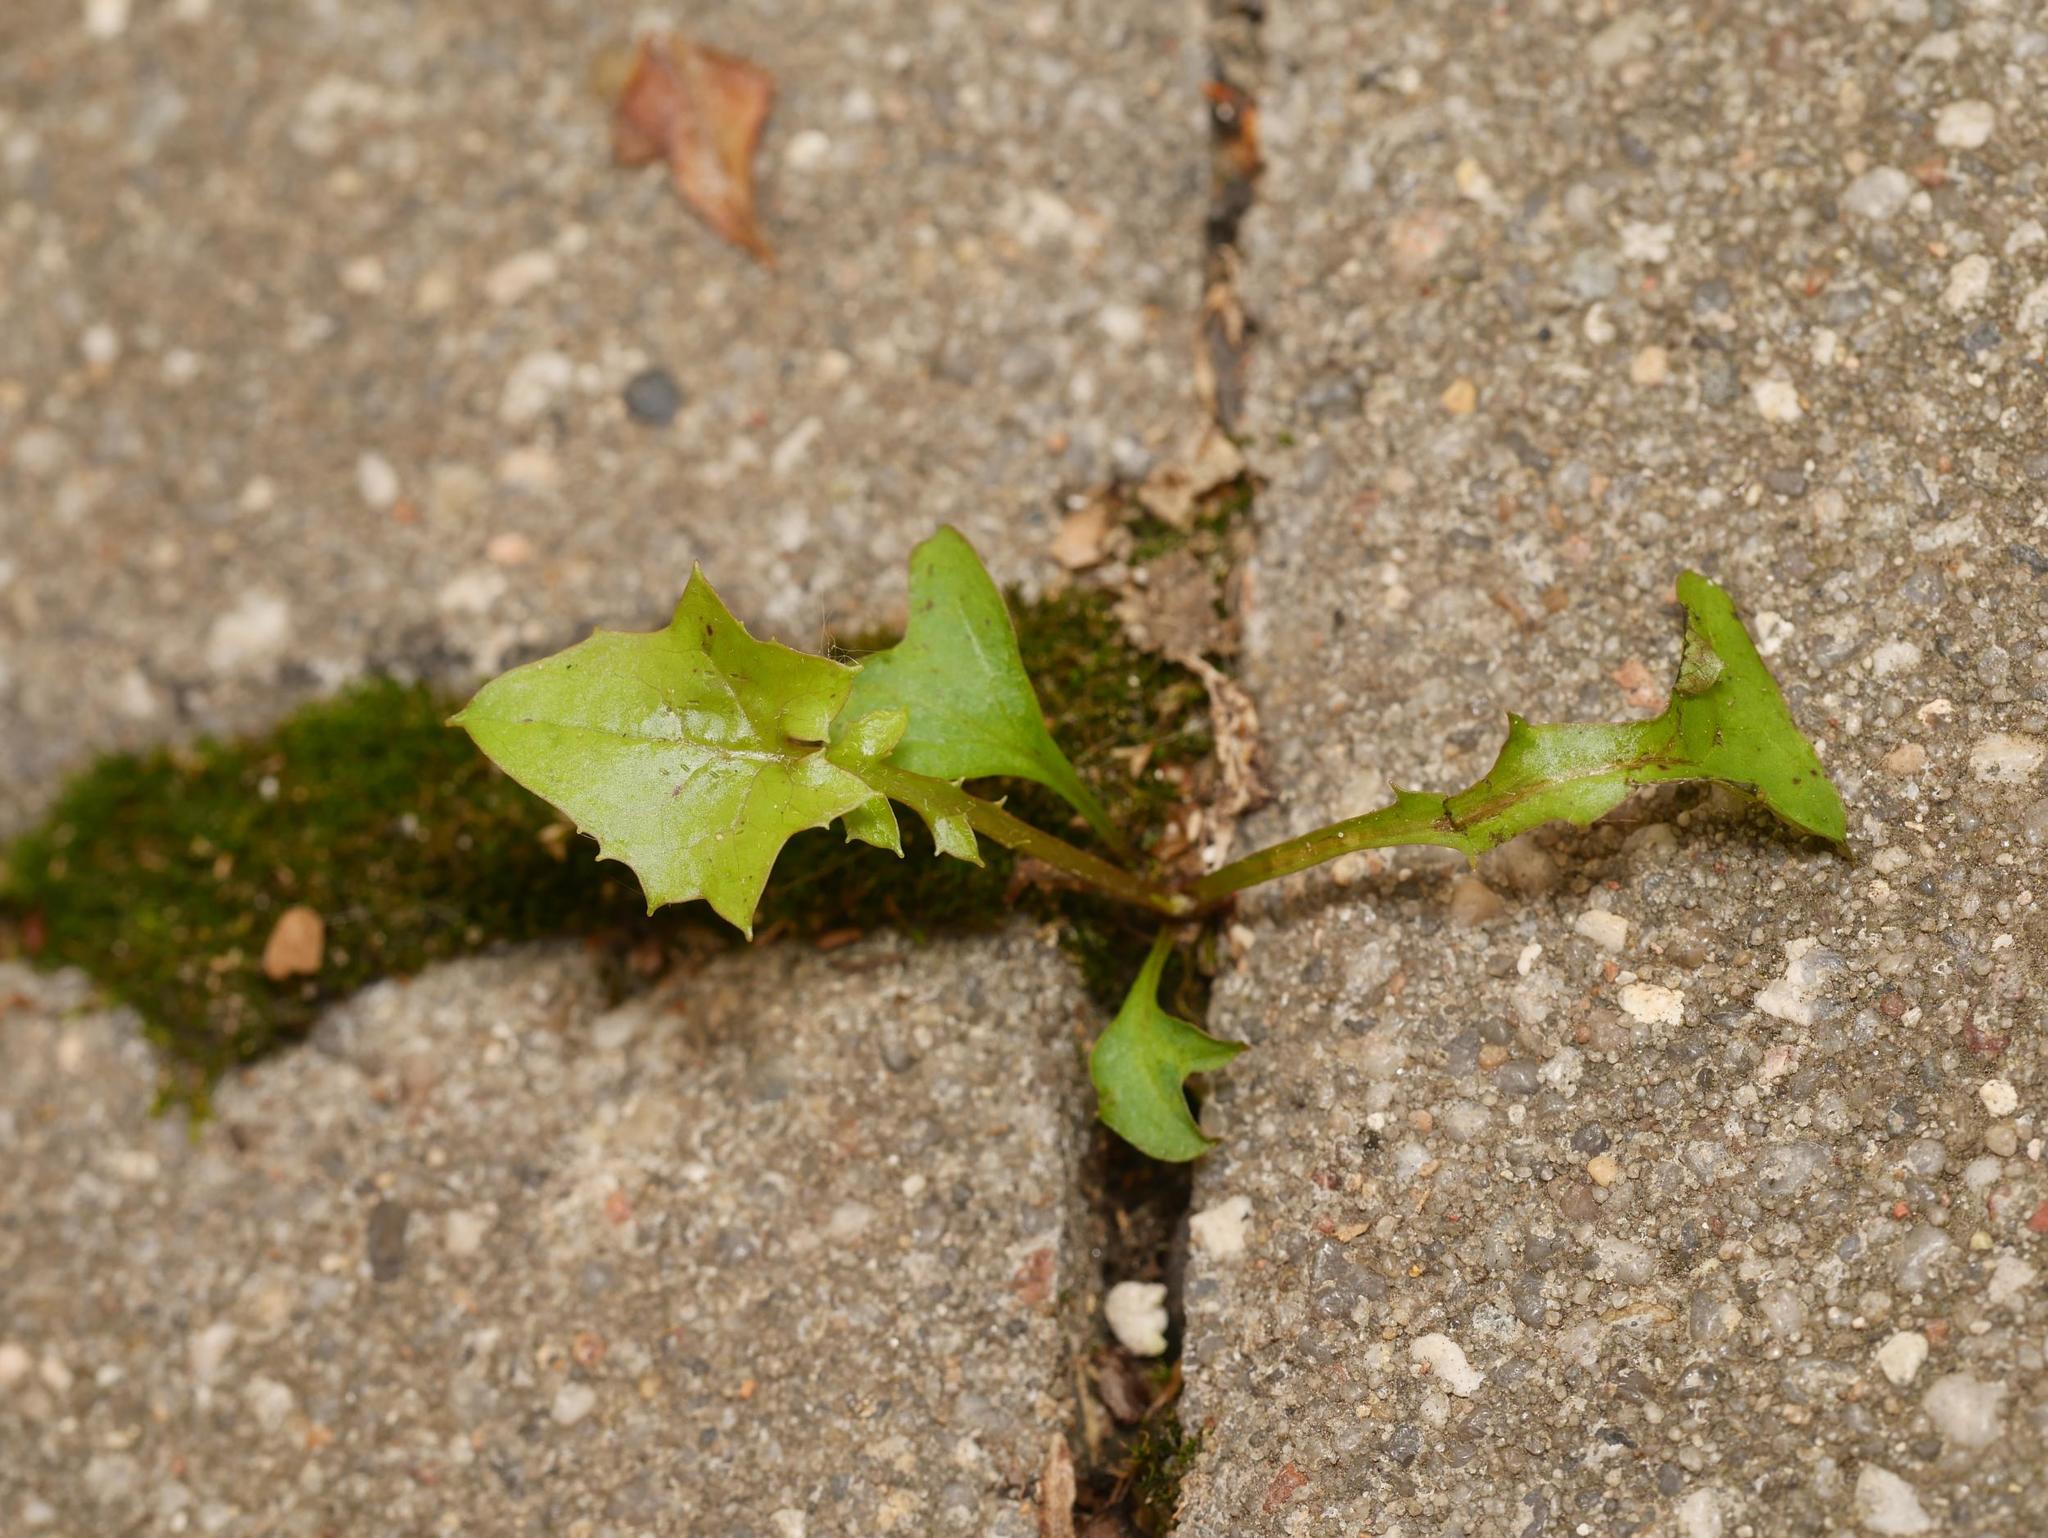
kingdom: Plantae
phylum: Tracheophyta
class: Magnoliopsida
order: Asterales
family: Asteraceae
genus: Mycelis
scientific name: Mycelis muralis
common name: Wall lettuce
